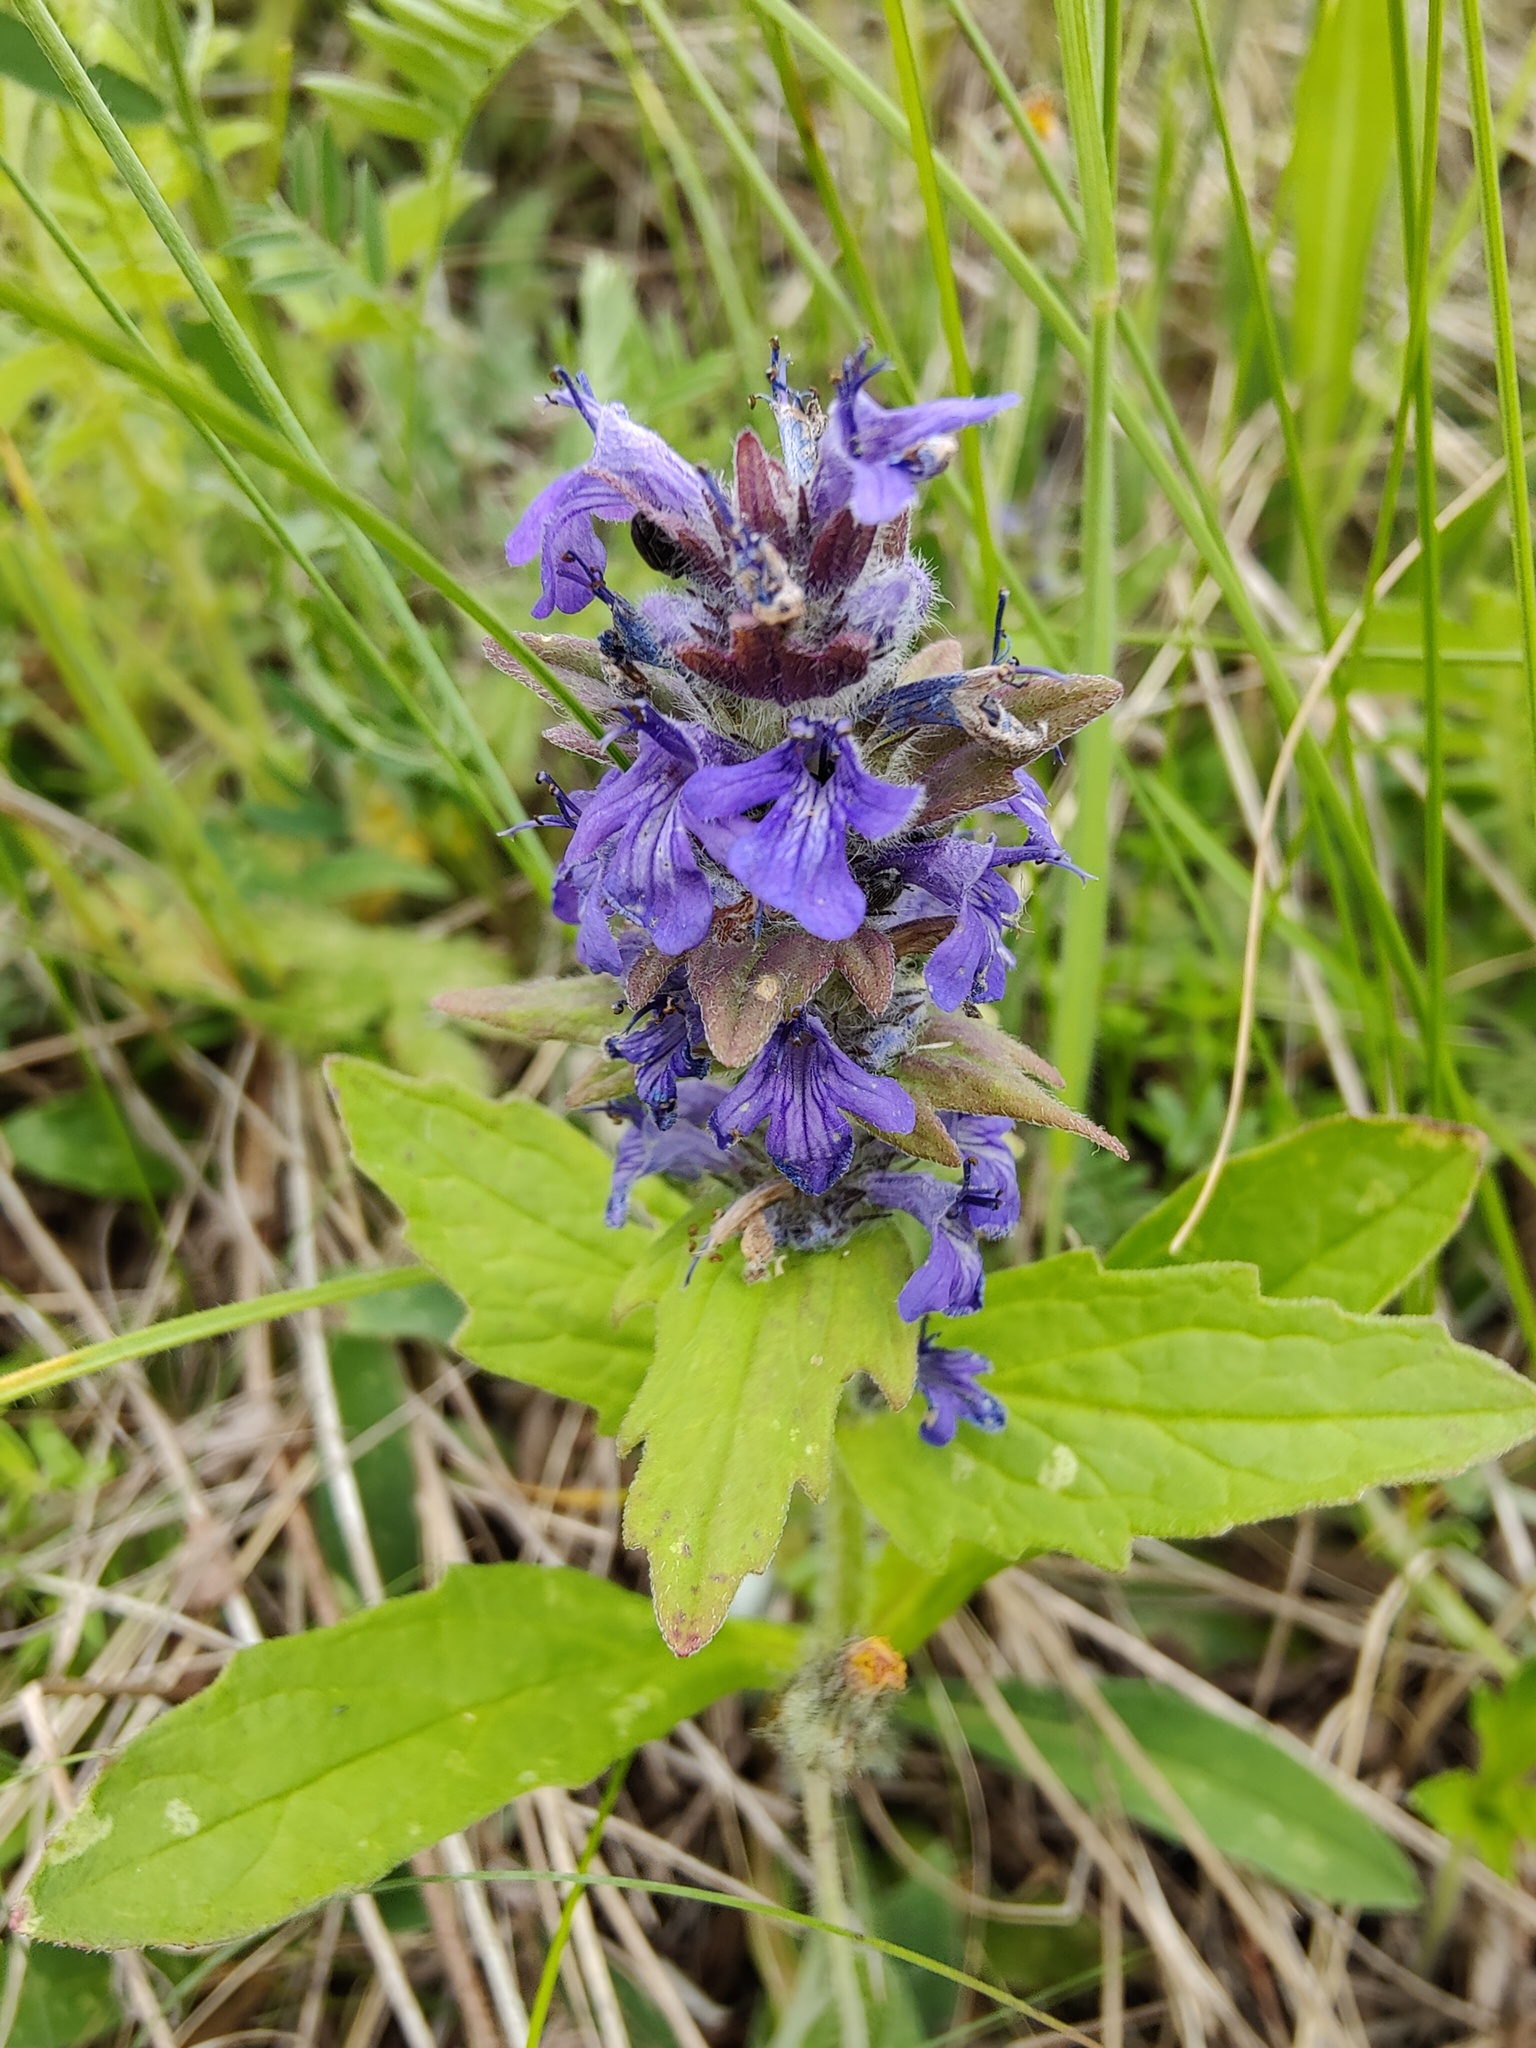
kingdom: Plantae
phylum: Tracheophyta
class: Magnoliopsida
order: Lamiales
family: Lamiaceae
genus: Ajuga
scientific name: Ajuga genevensis
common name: Blue bugle
